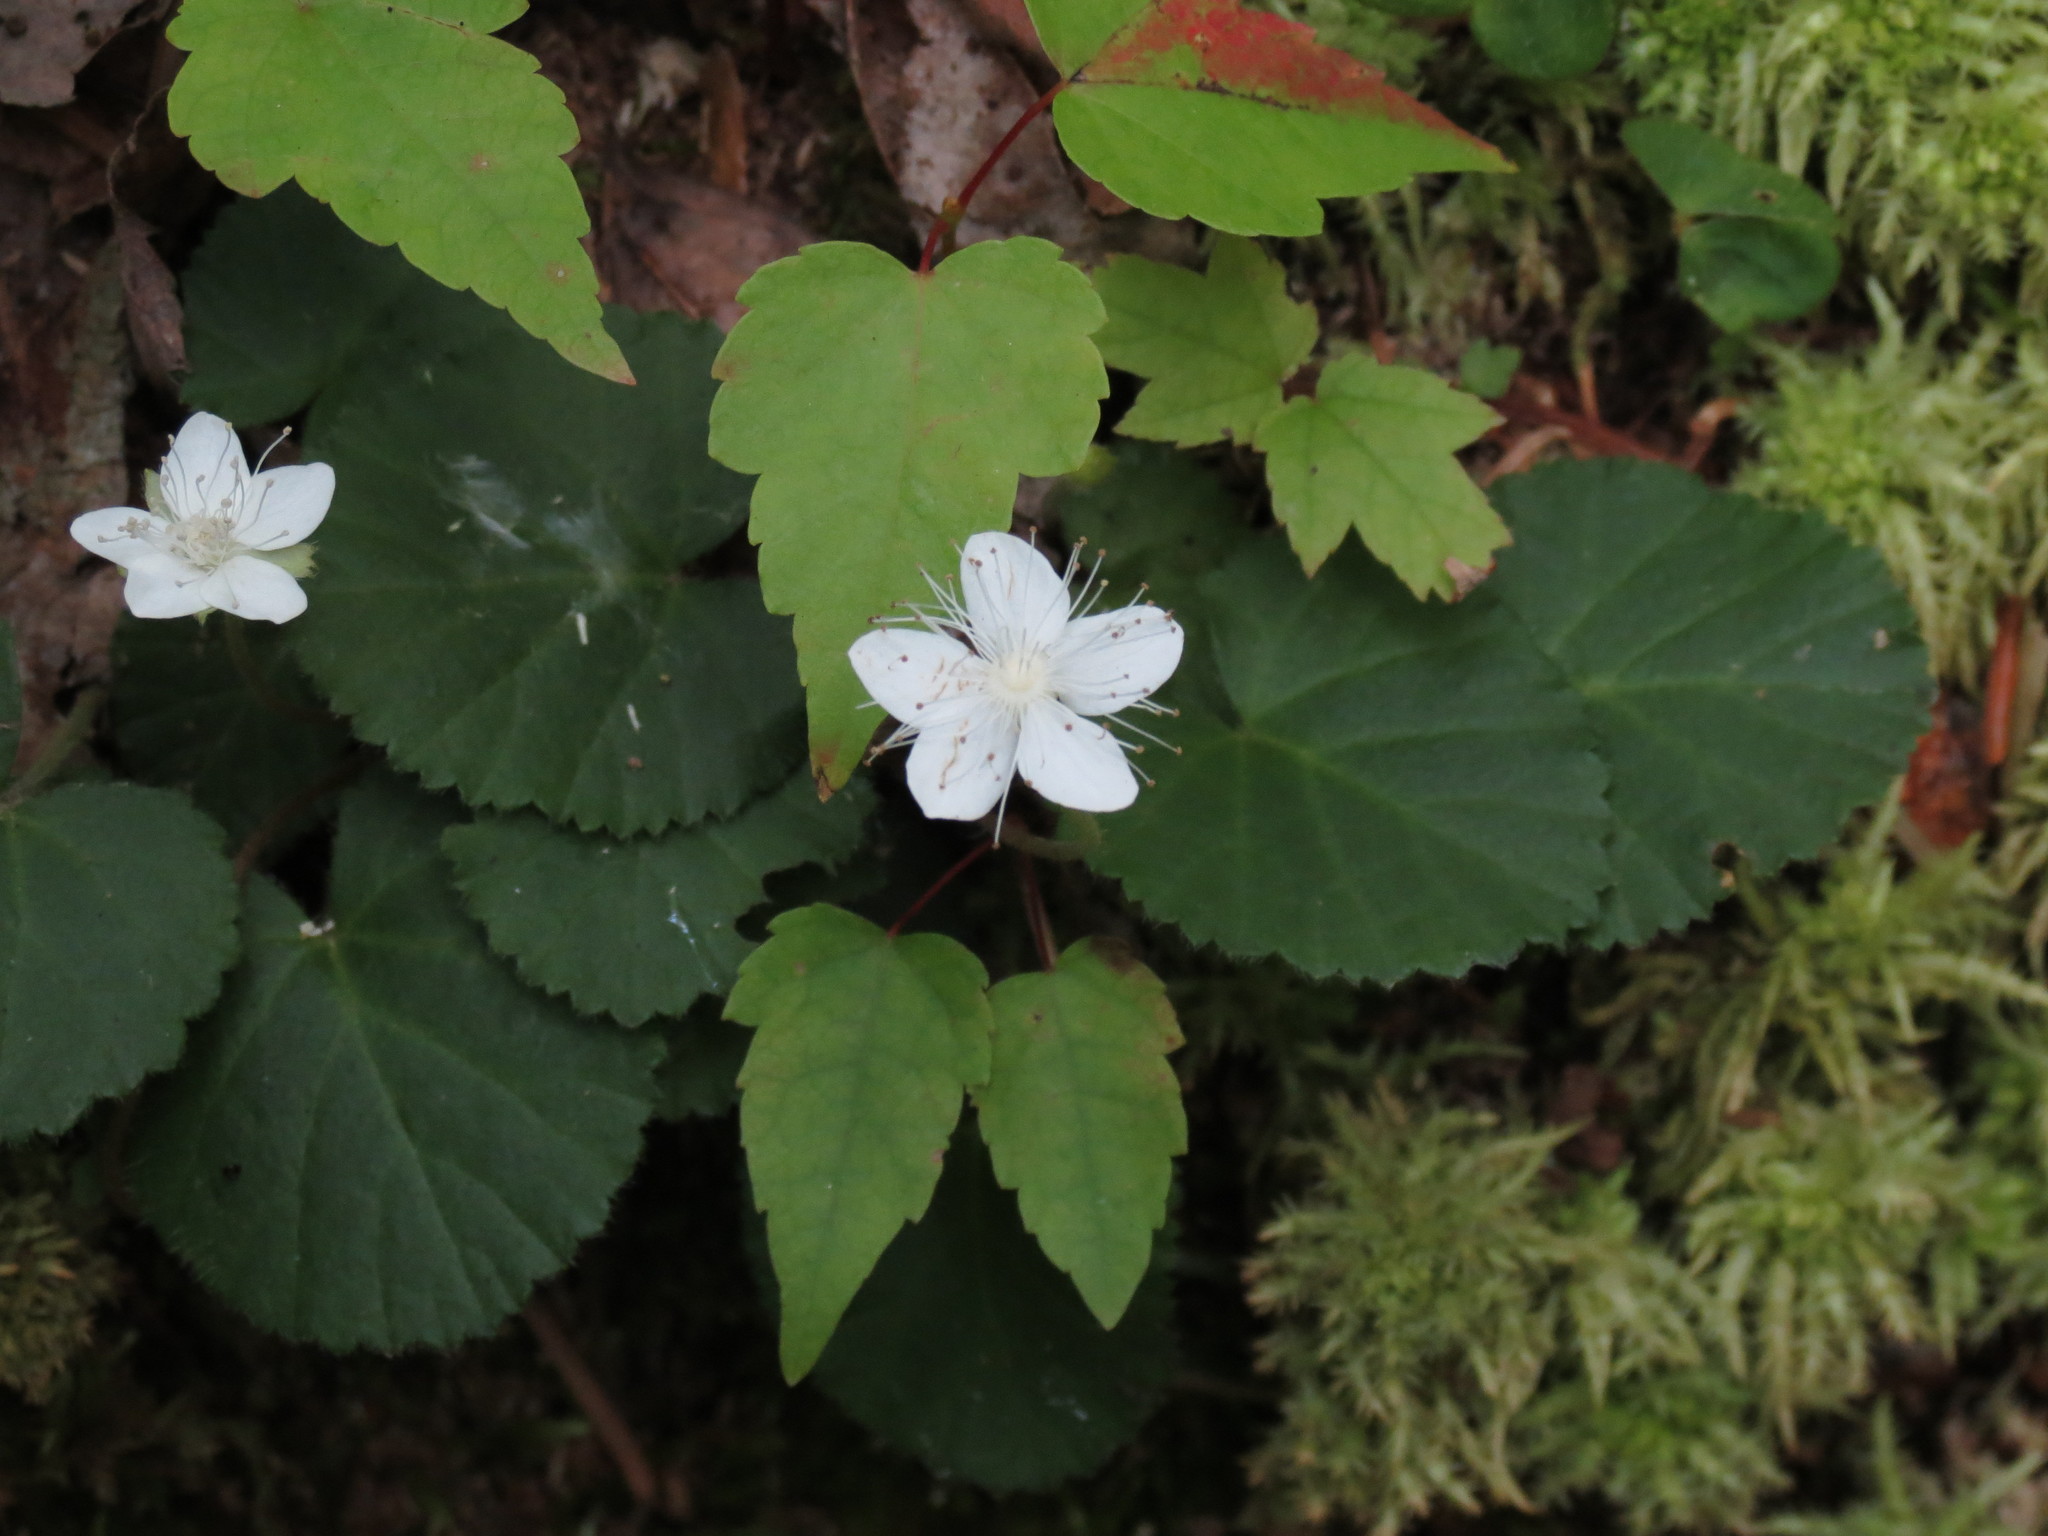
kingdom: Plantae
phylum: Tracheophyta
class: Magnoliopsida
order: Rosales
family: Rosaceae
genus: Dalibarda
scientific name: Dalibarda repens
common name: Dewdrop
